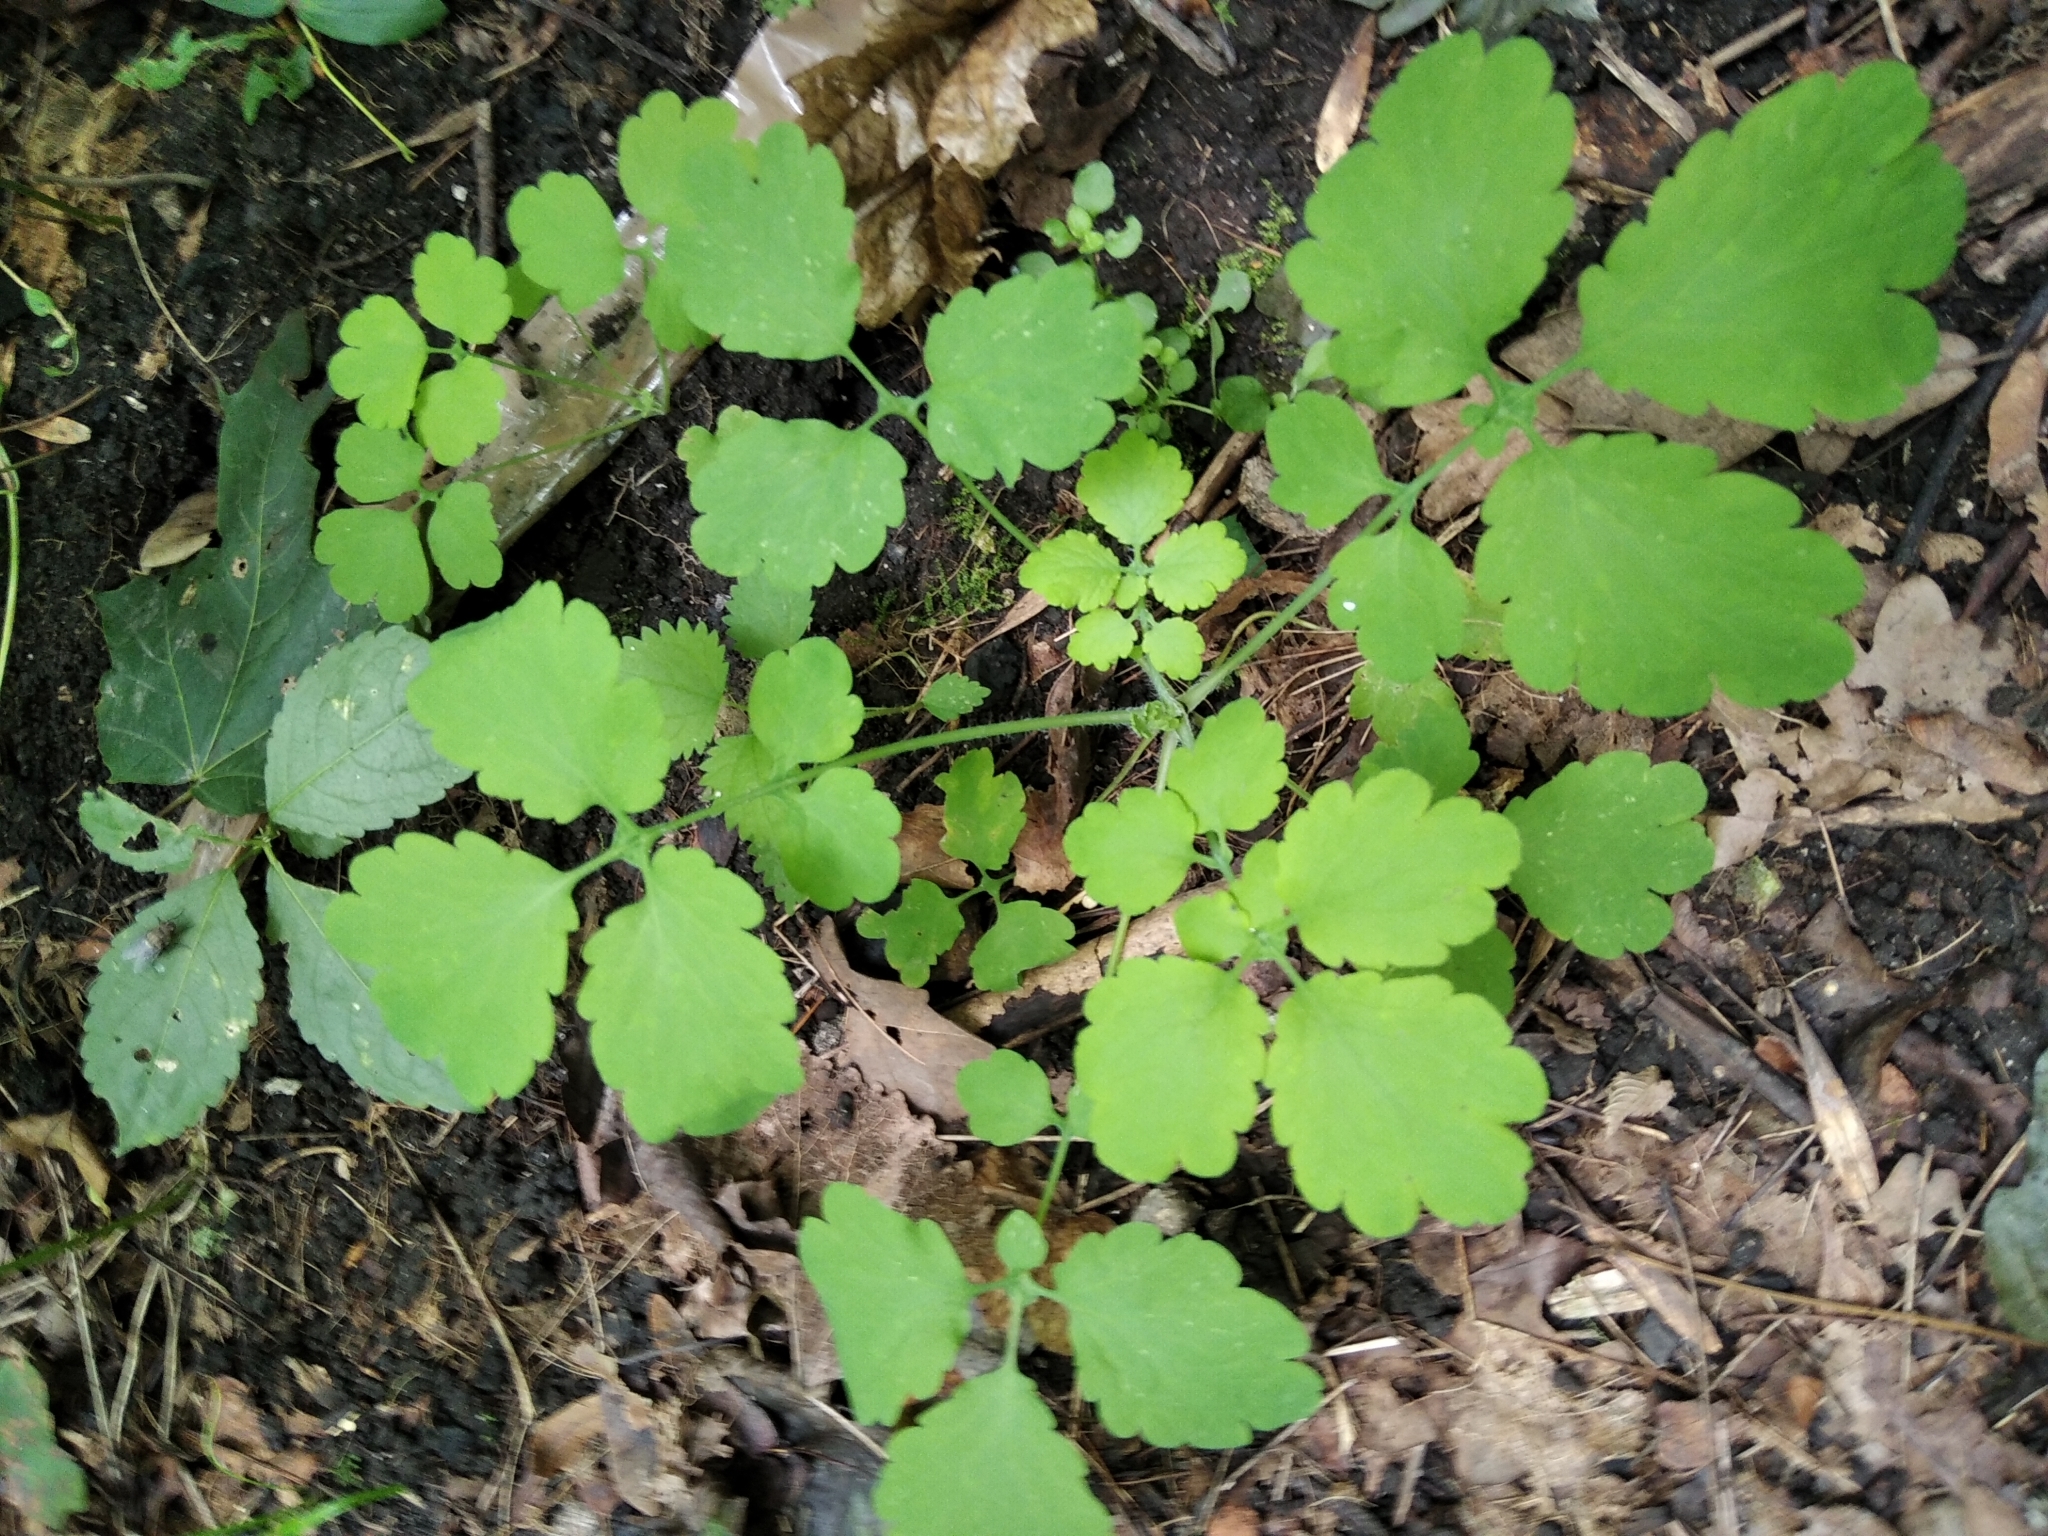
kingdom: Plantae
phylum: Tracheophyta
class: Magnoliopsida
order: Ranunculales
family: Papaveraceae
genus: Chelidonium
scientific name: Chelidonium majus
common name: Greater celandine
